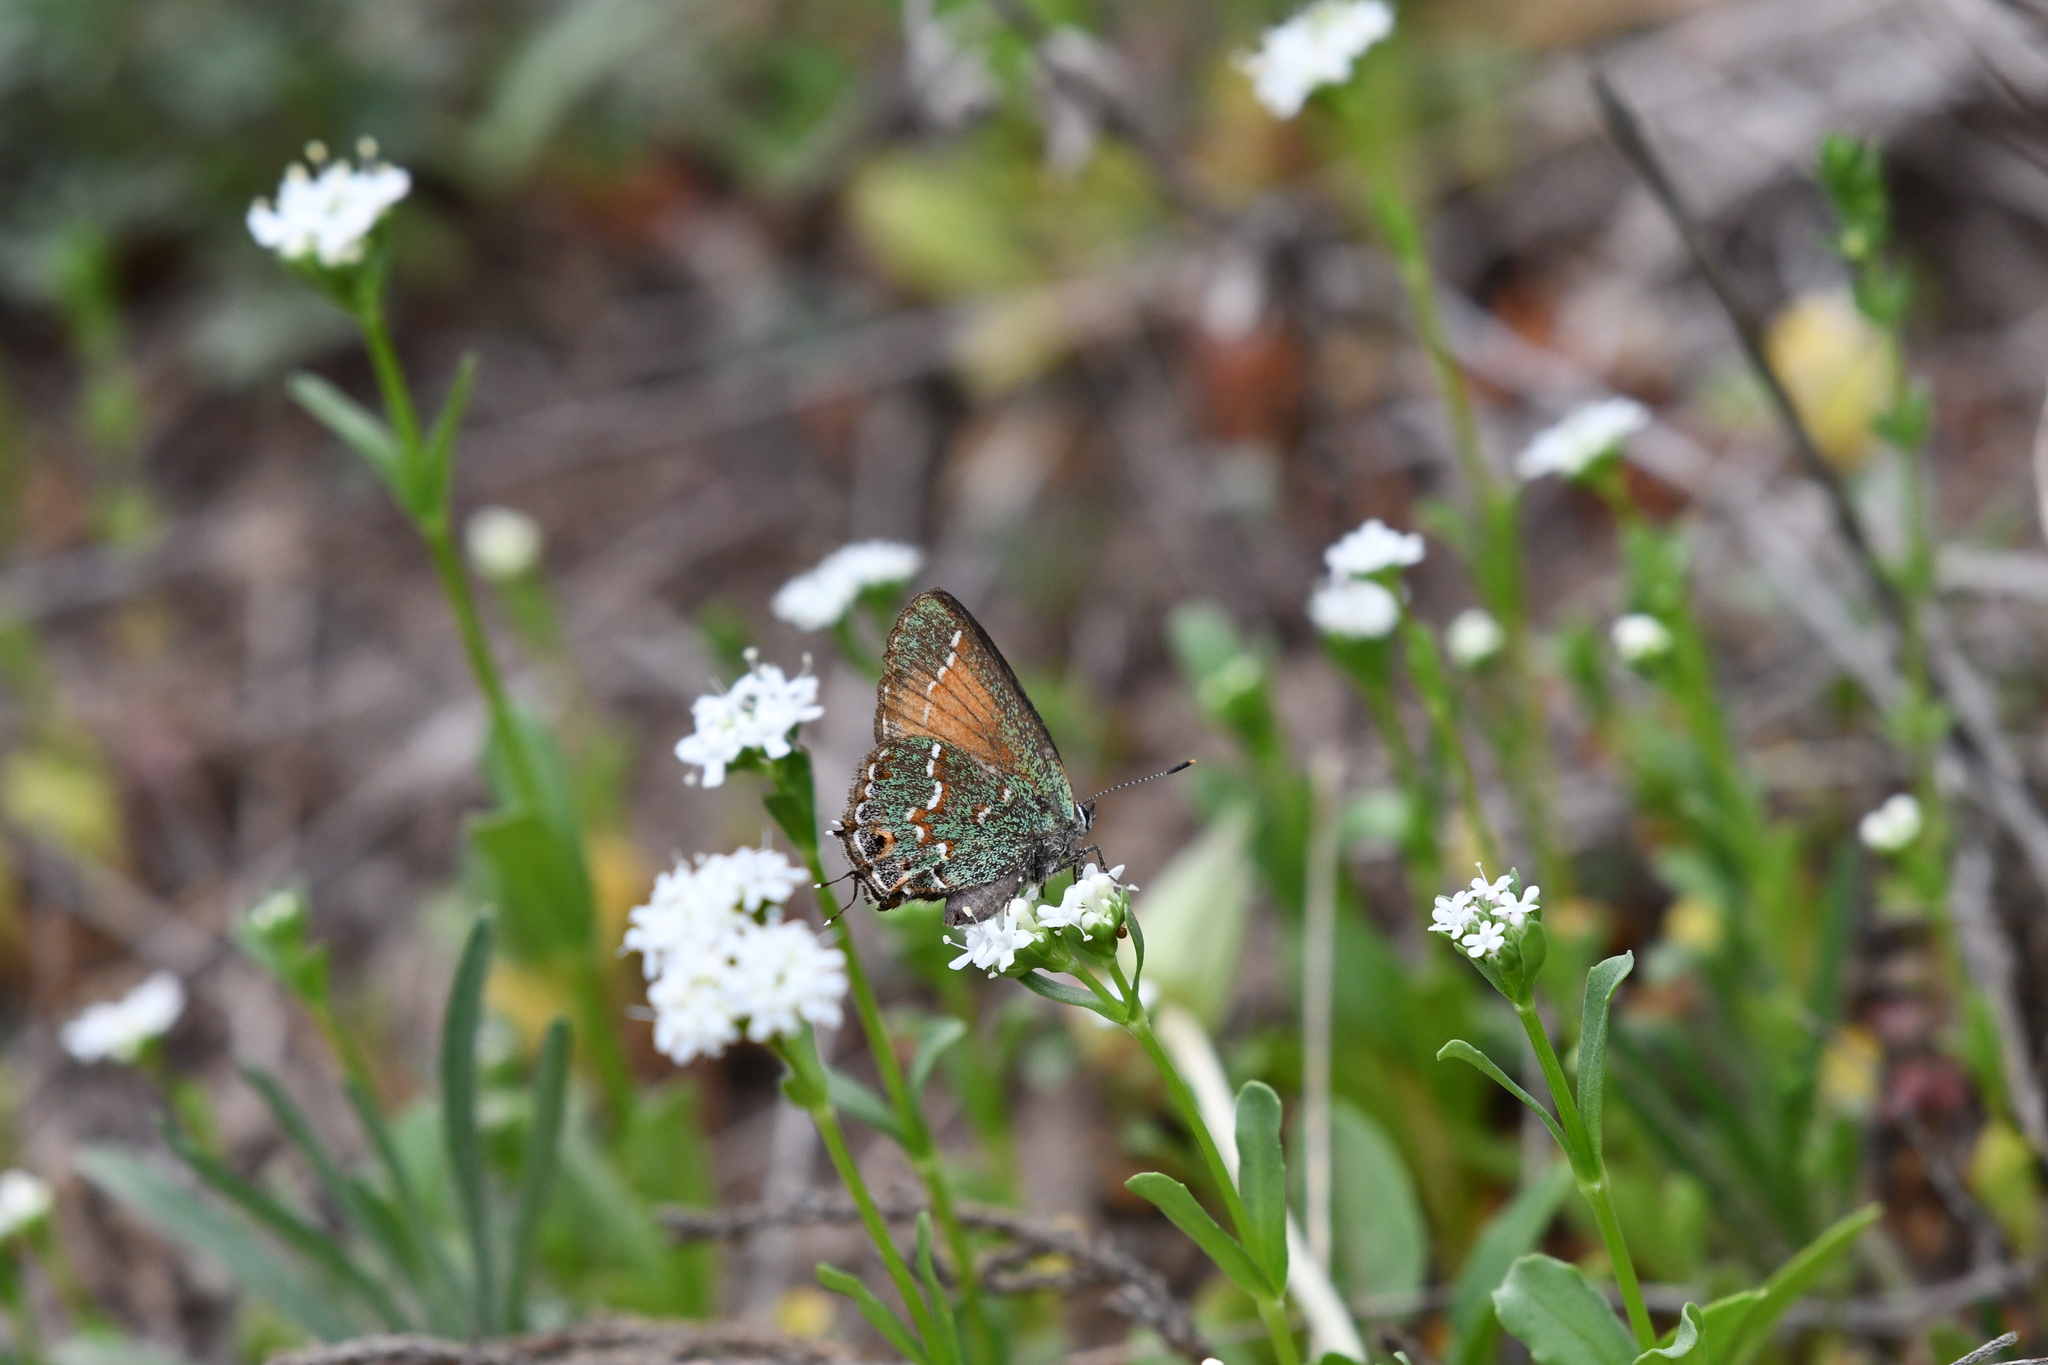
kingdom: Animalia
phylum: Arthropoda
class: Insecta
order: Lepidoptera
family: Lycaenidae
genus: Mitoura
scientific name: Mitoura gryneus
